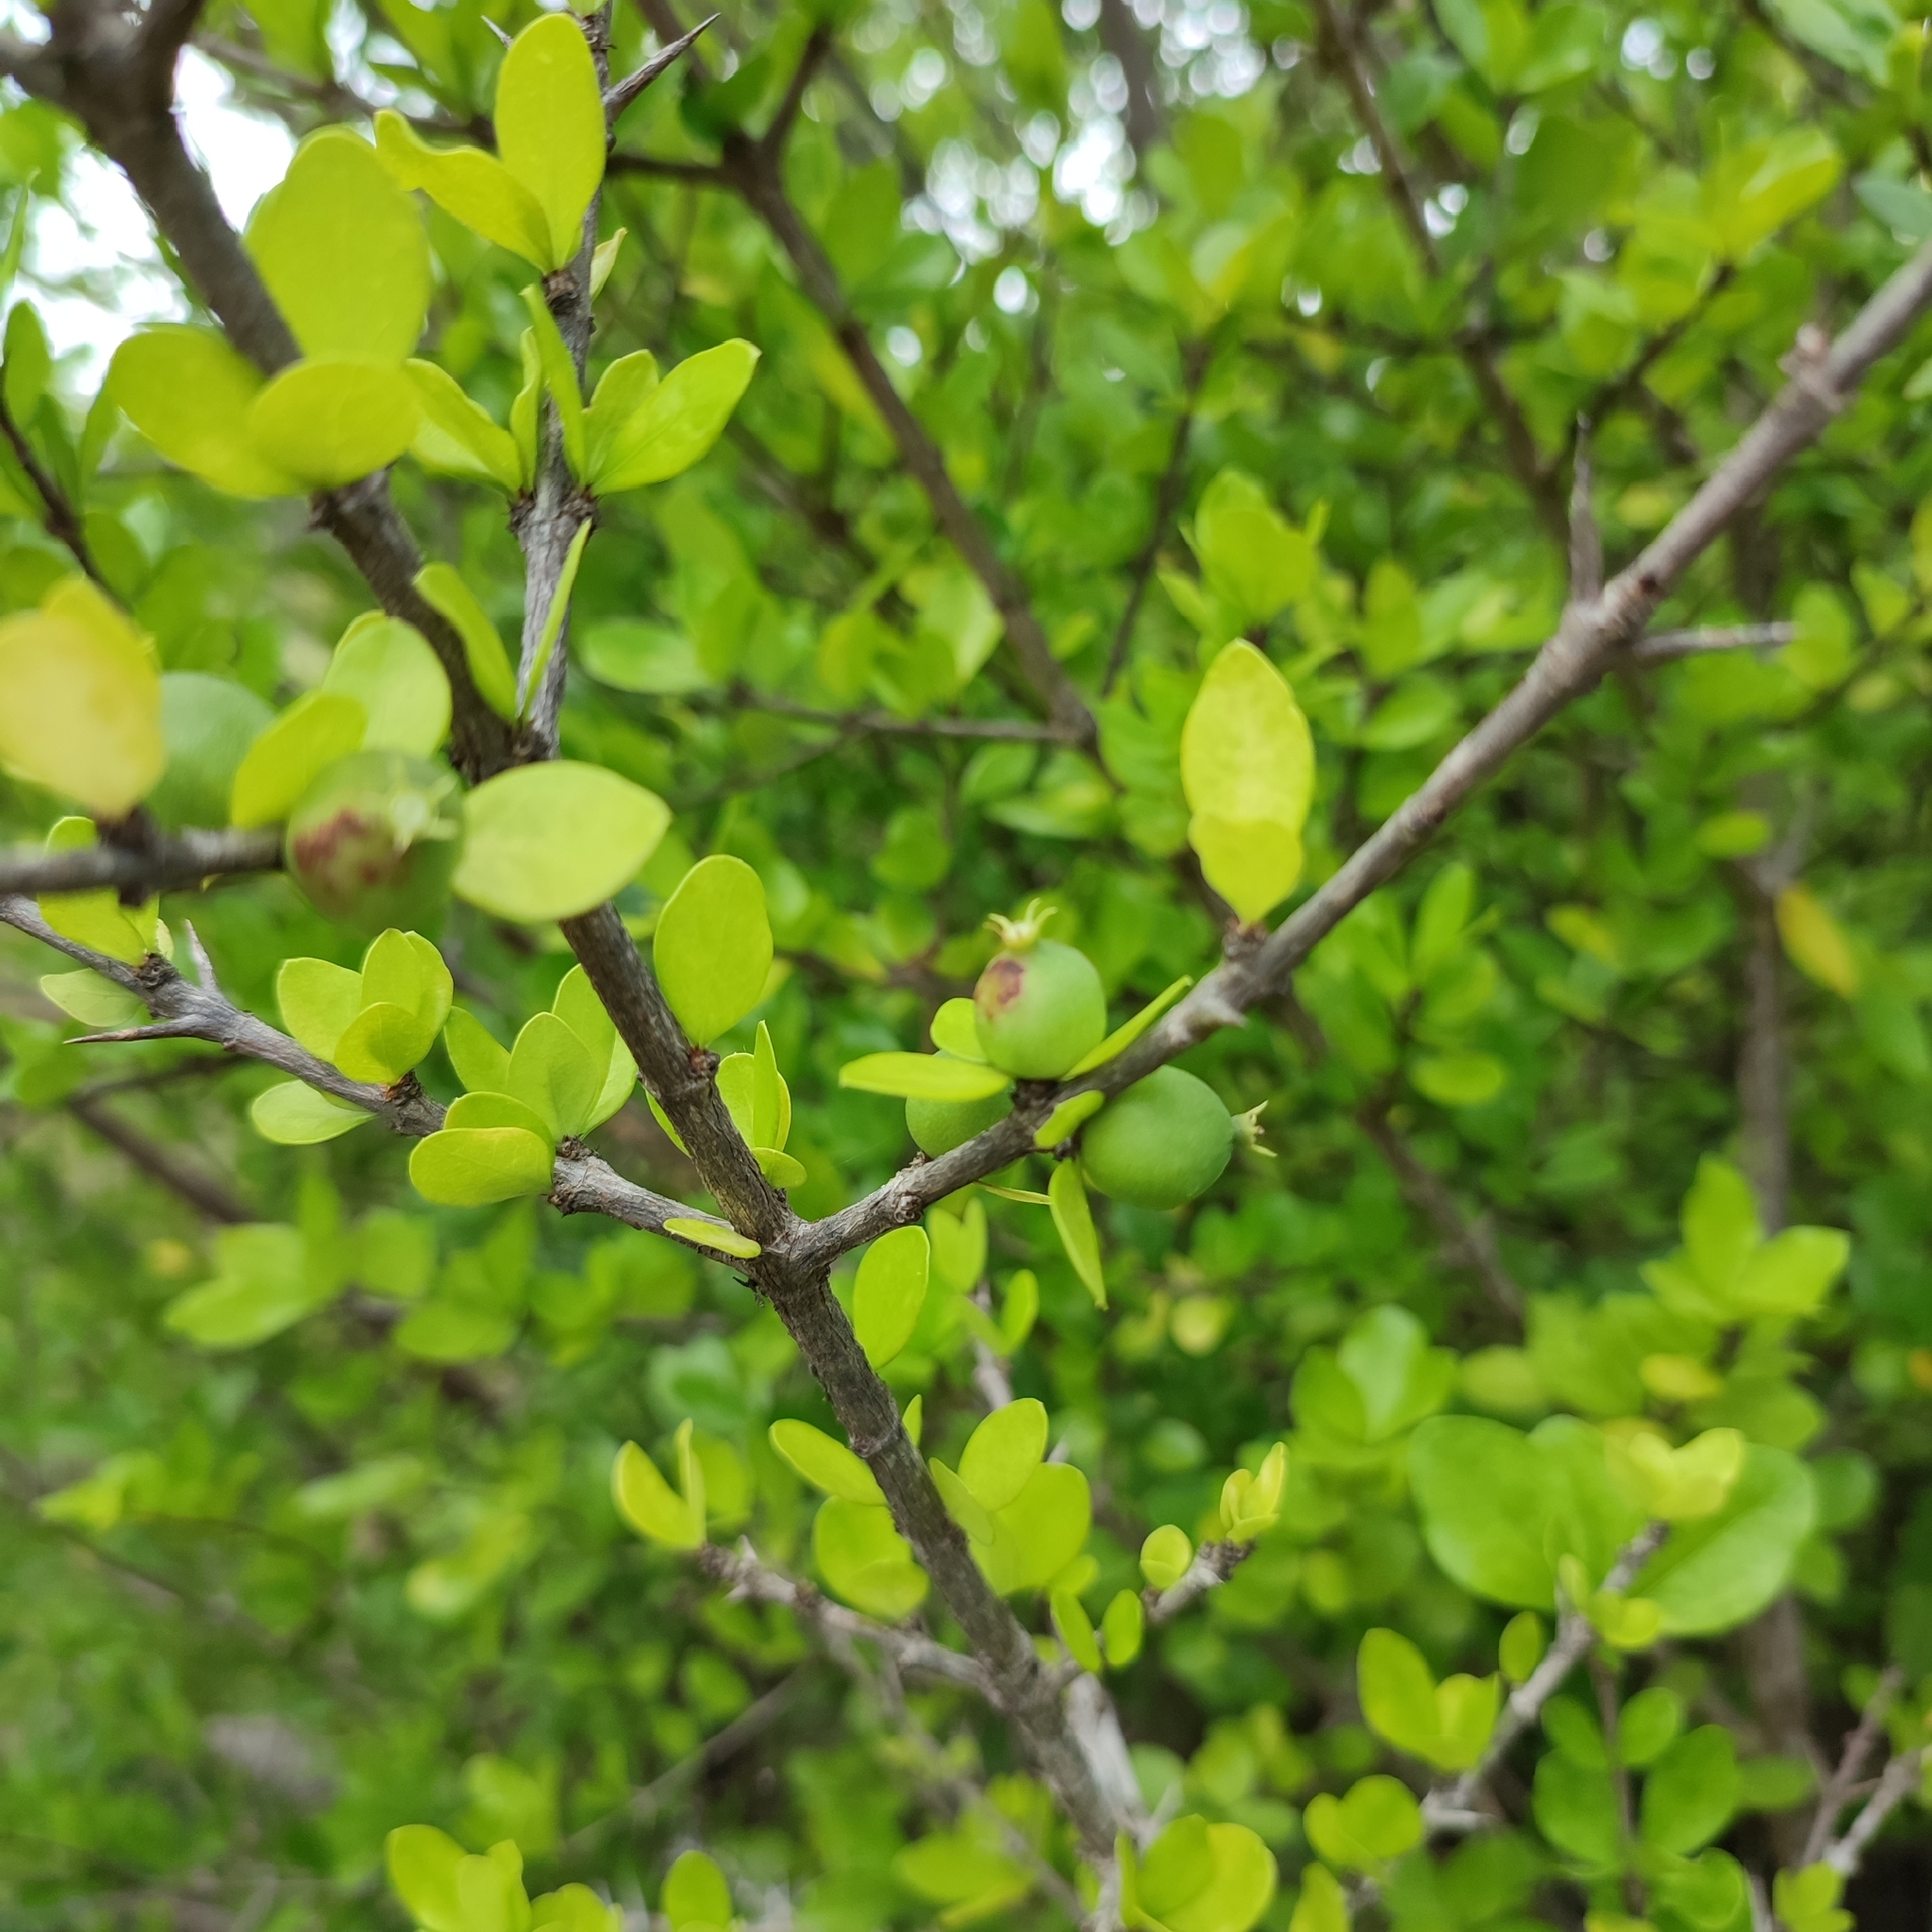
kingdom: Plantae
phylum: Tracheophyta
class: Magnoliopsida
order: Gentianales
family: Rubiaceae
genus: Randia
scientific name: Randia aculeata
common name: Inkberry
